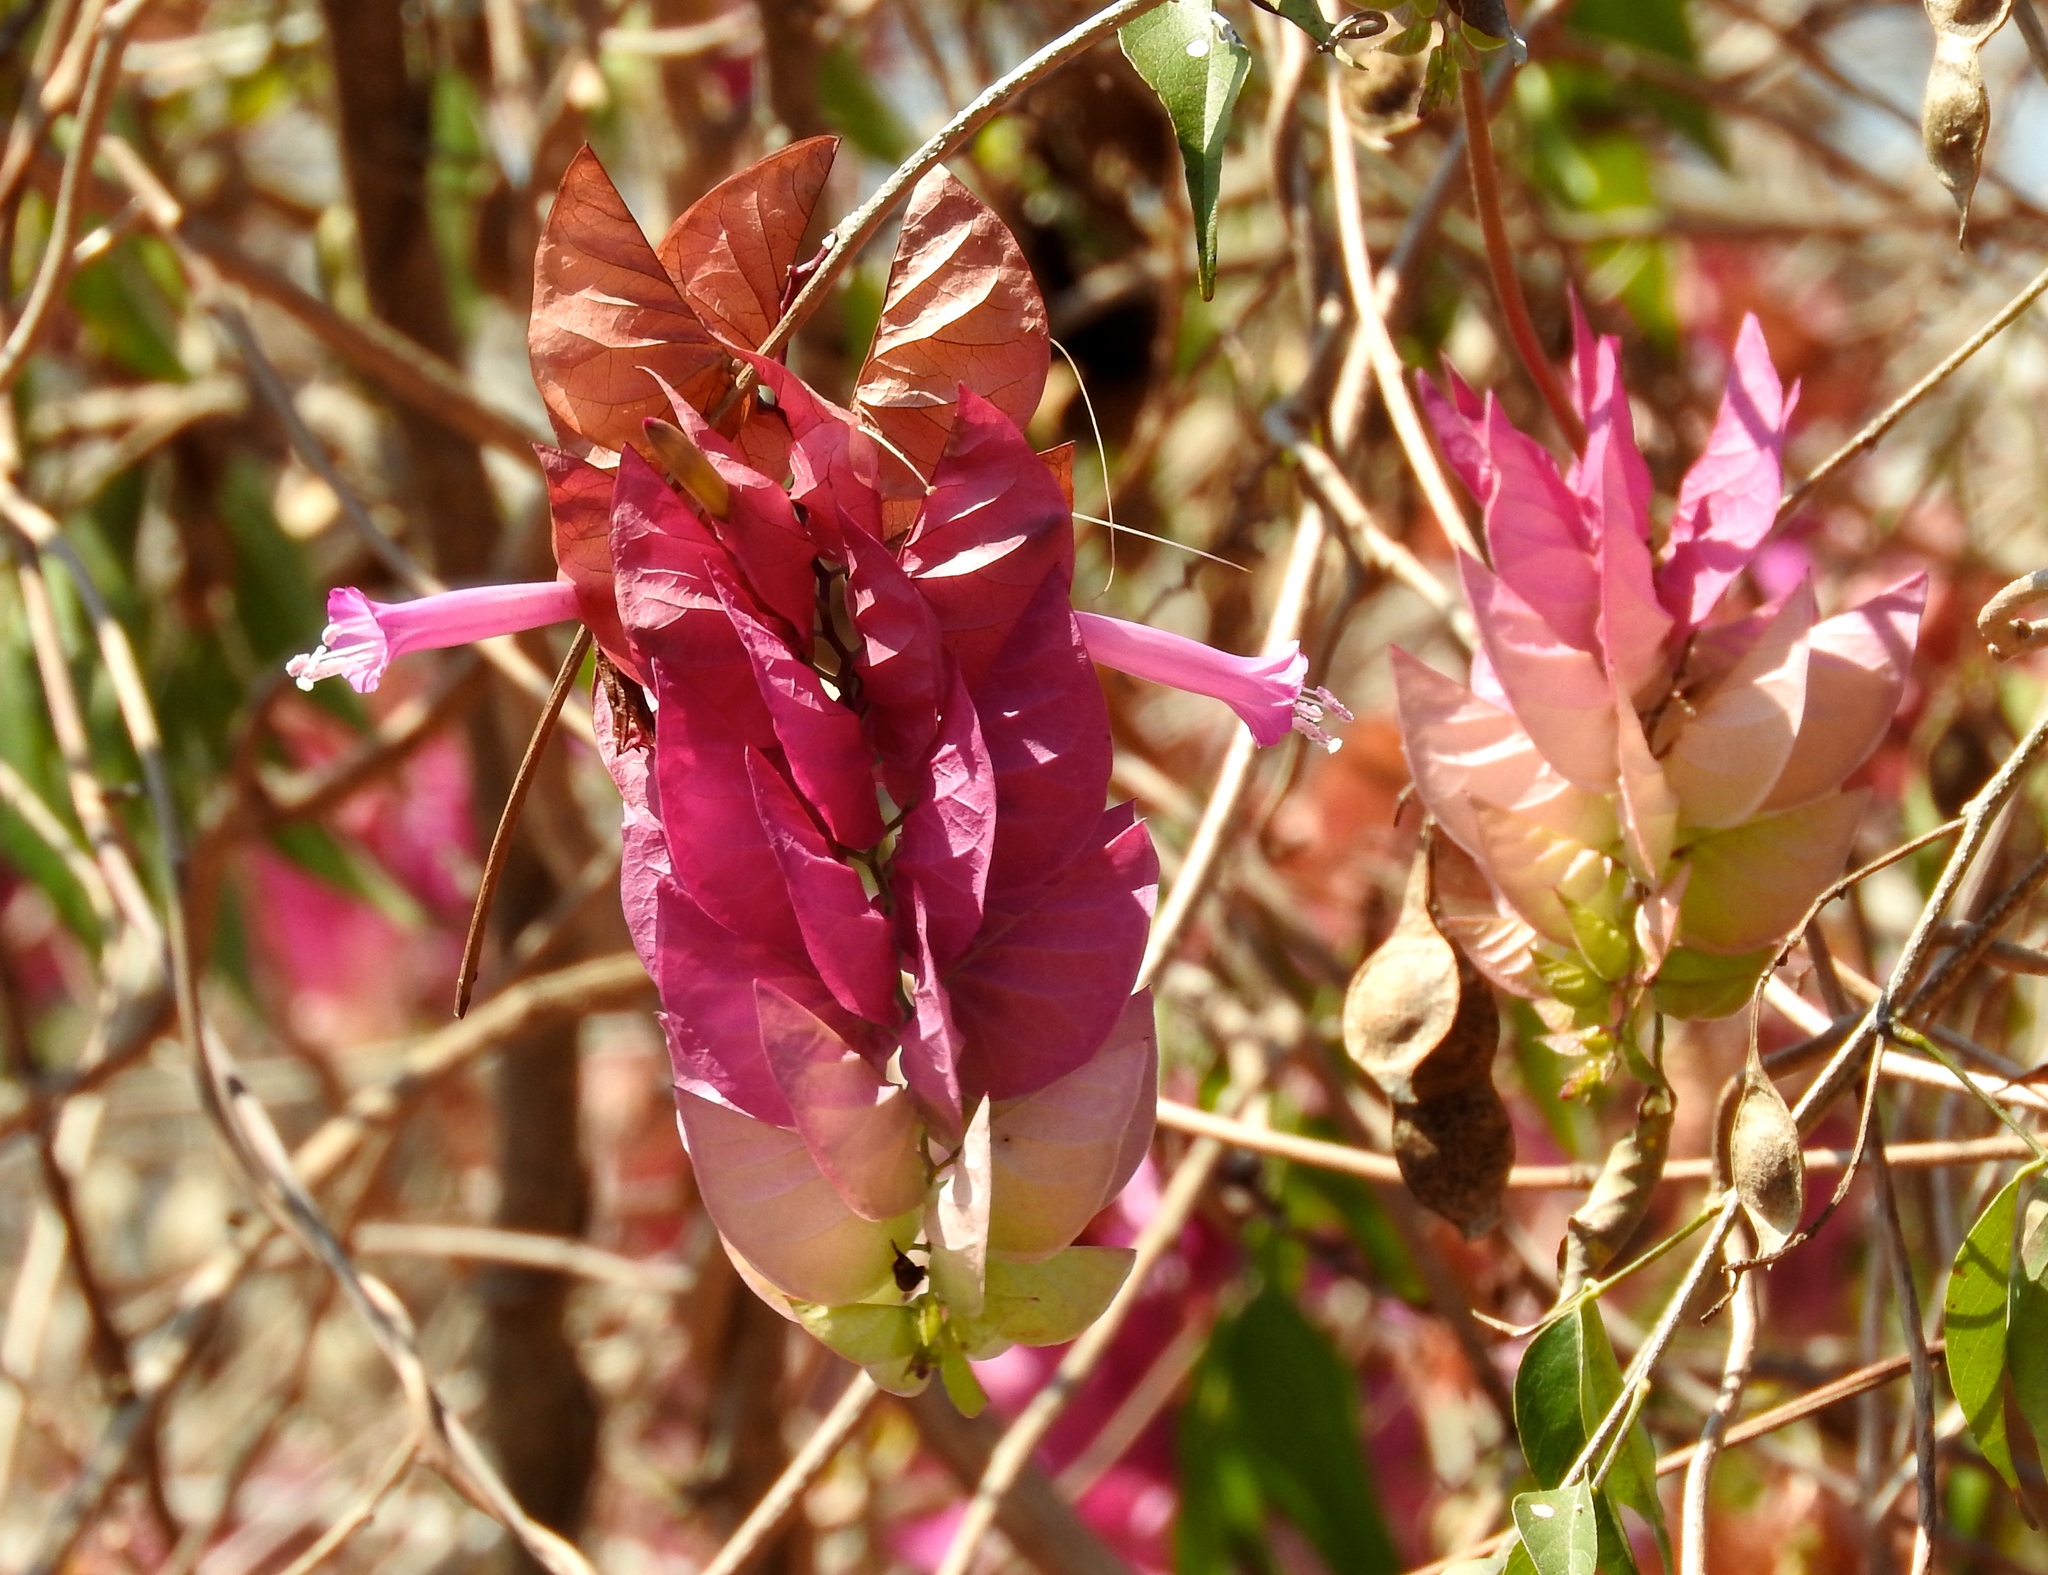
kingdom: Plantae
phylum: Tracheophyta
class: Magnoliopsida
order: Solanales
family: Convolvulaceae
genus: Ipomoea
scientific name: Ipomoea bracteata
